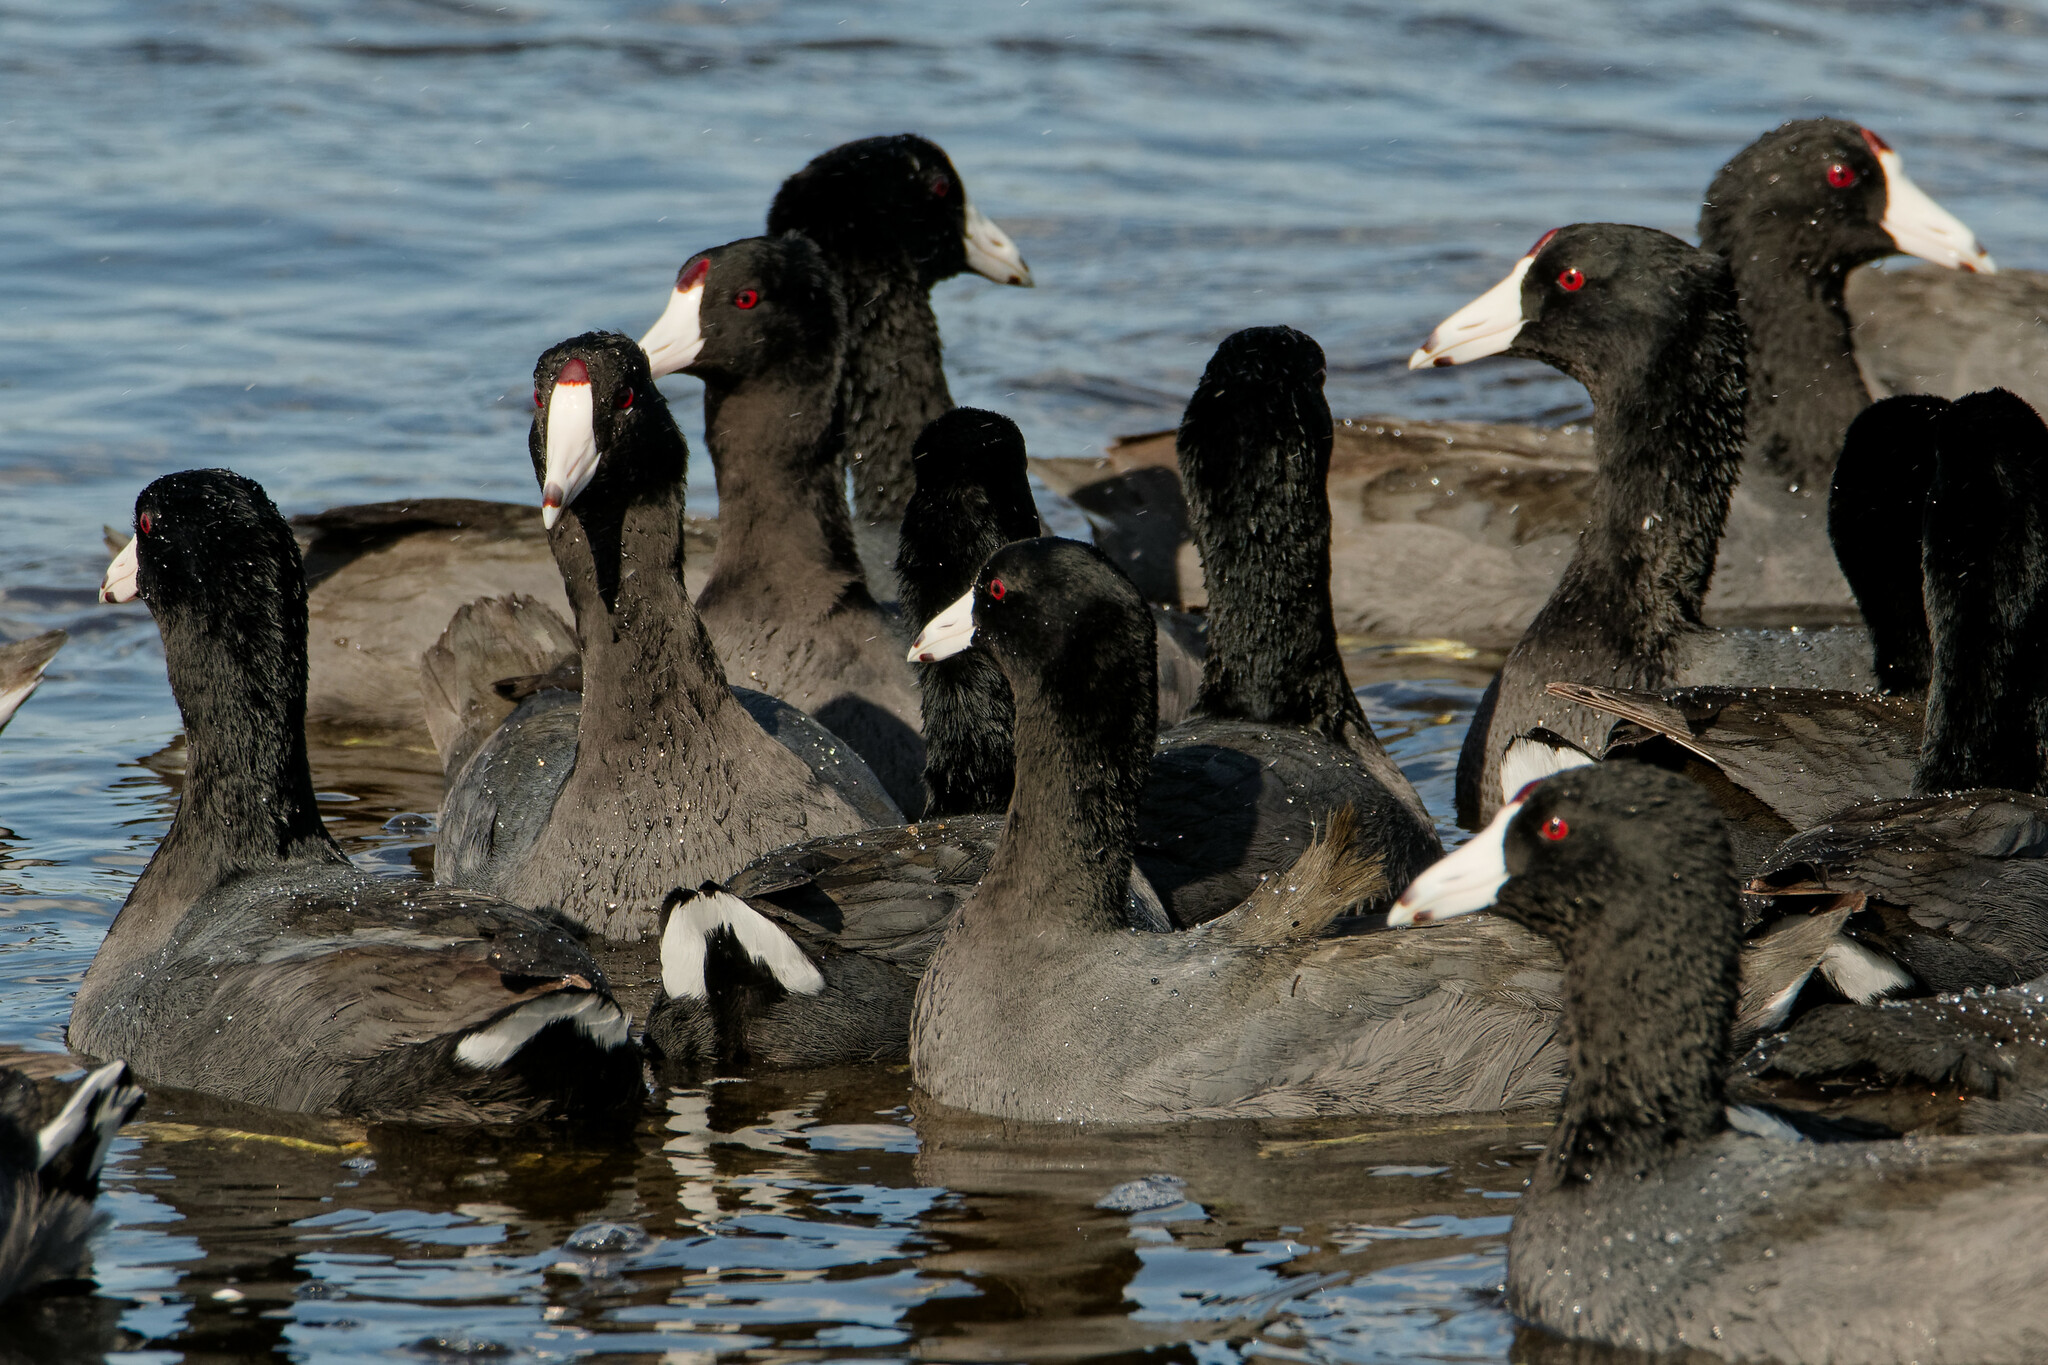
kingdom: Animalia
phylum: Chordata
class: Aves
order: Gruiformes
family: Rallidae
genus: Fulica
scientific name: Fulica americana
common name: American coot
